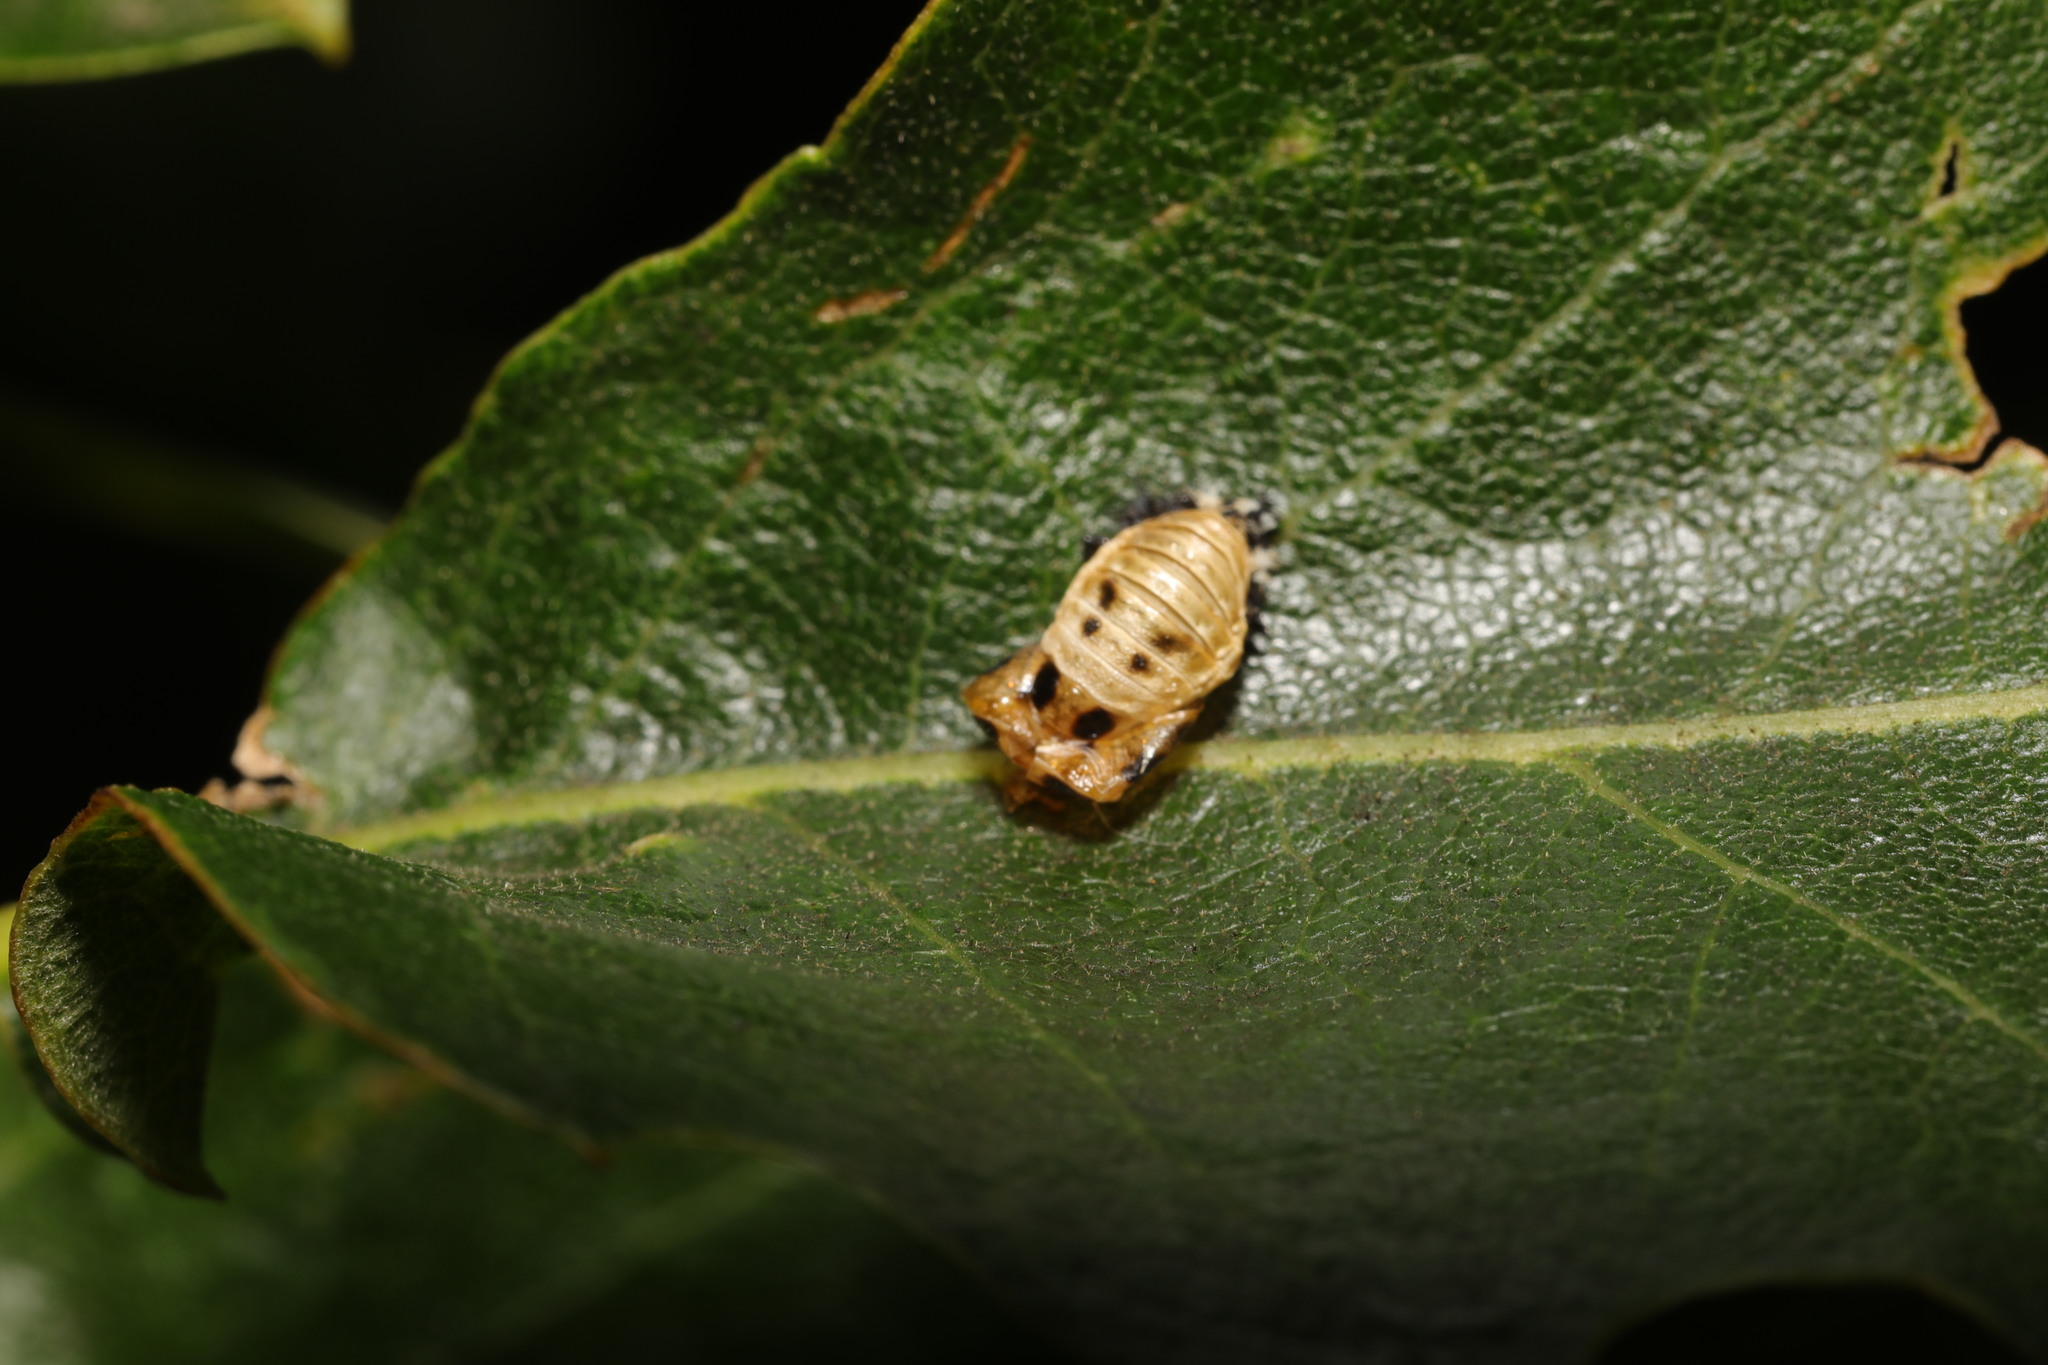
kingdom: Animalia
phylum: Arthropoda
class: Insecta
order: Coleoptera
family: Coccinellidae
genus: Harmonia
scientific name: Harmonia axyridis
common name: Harlequin ladybird
